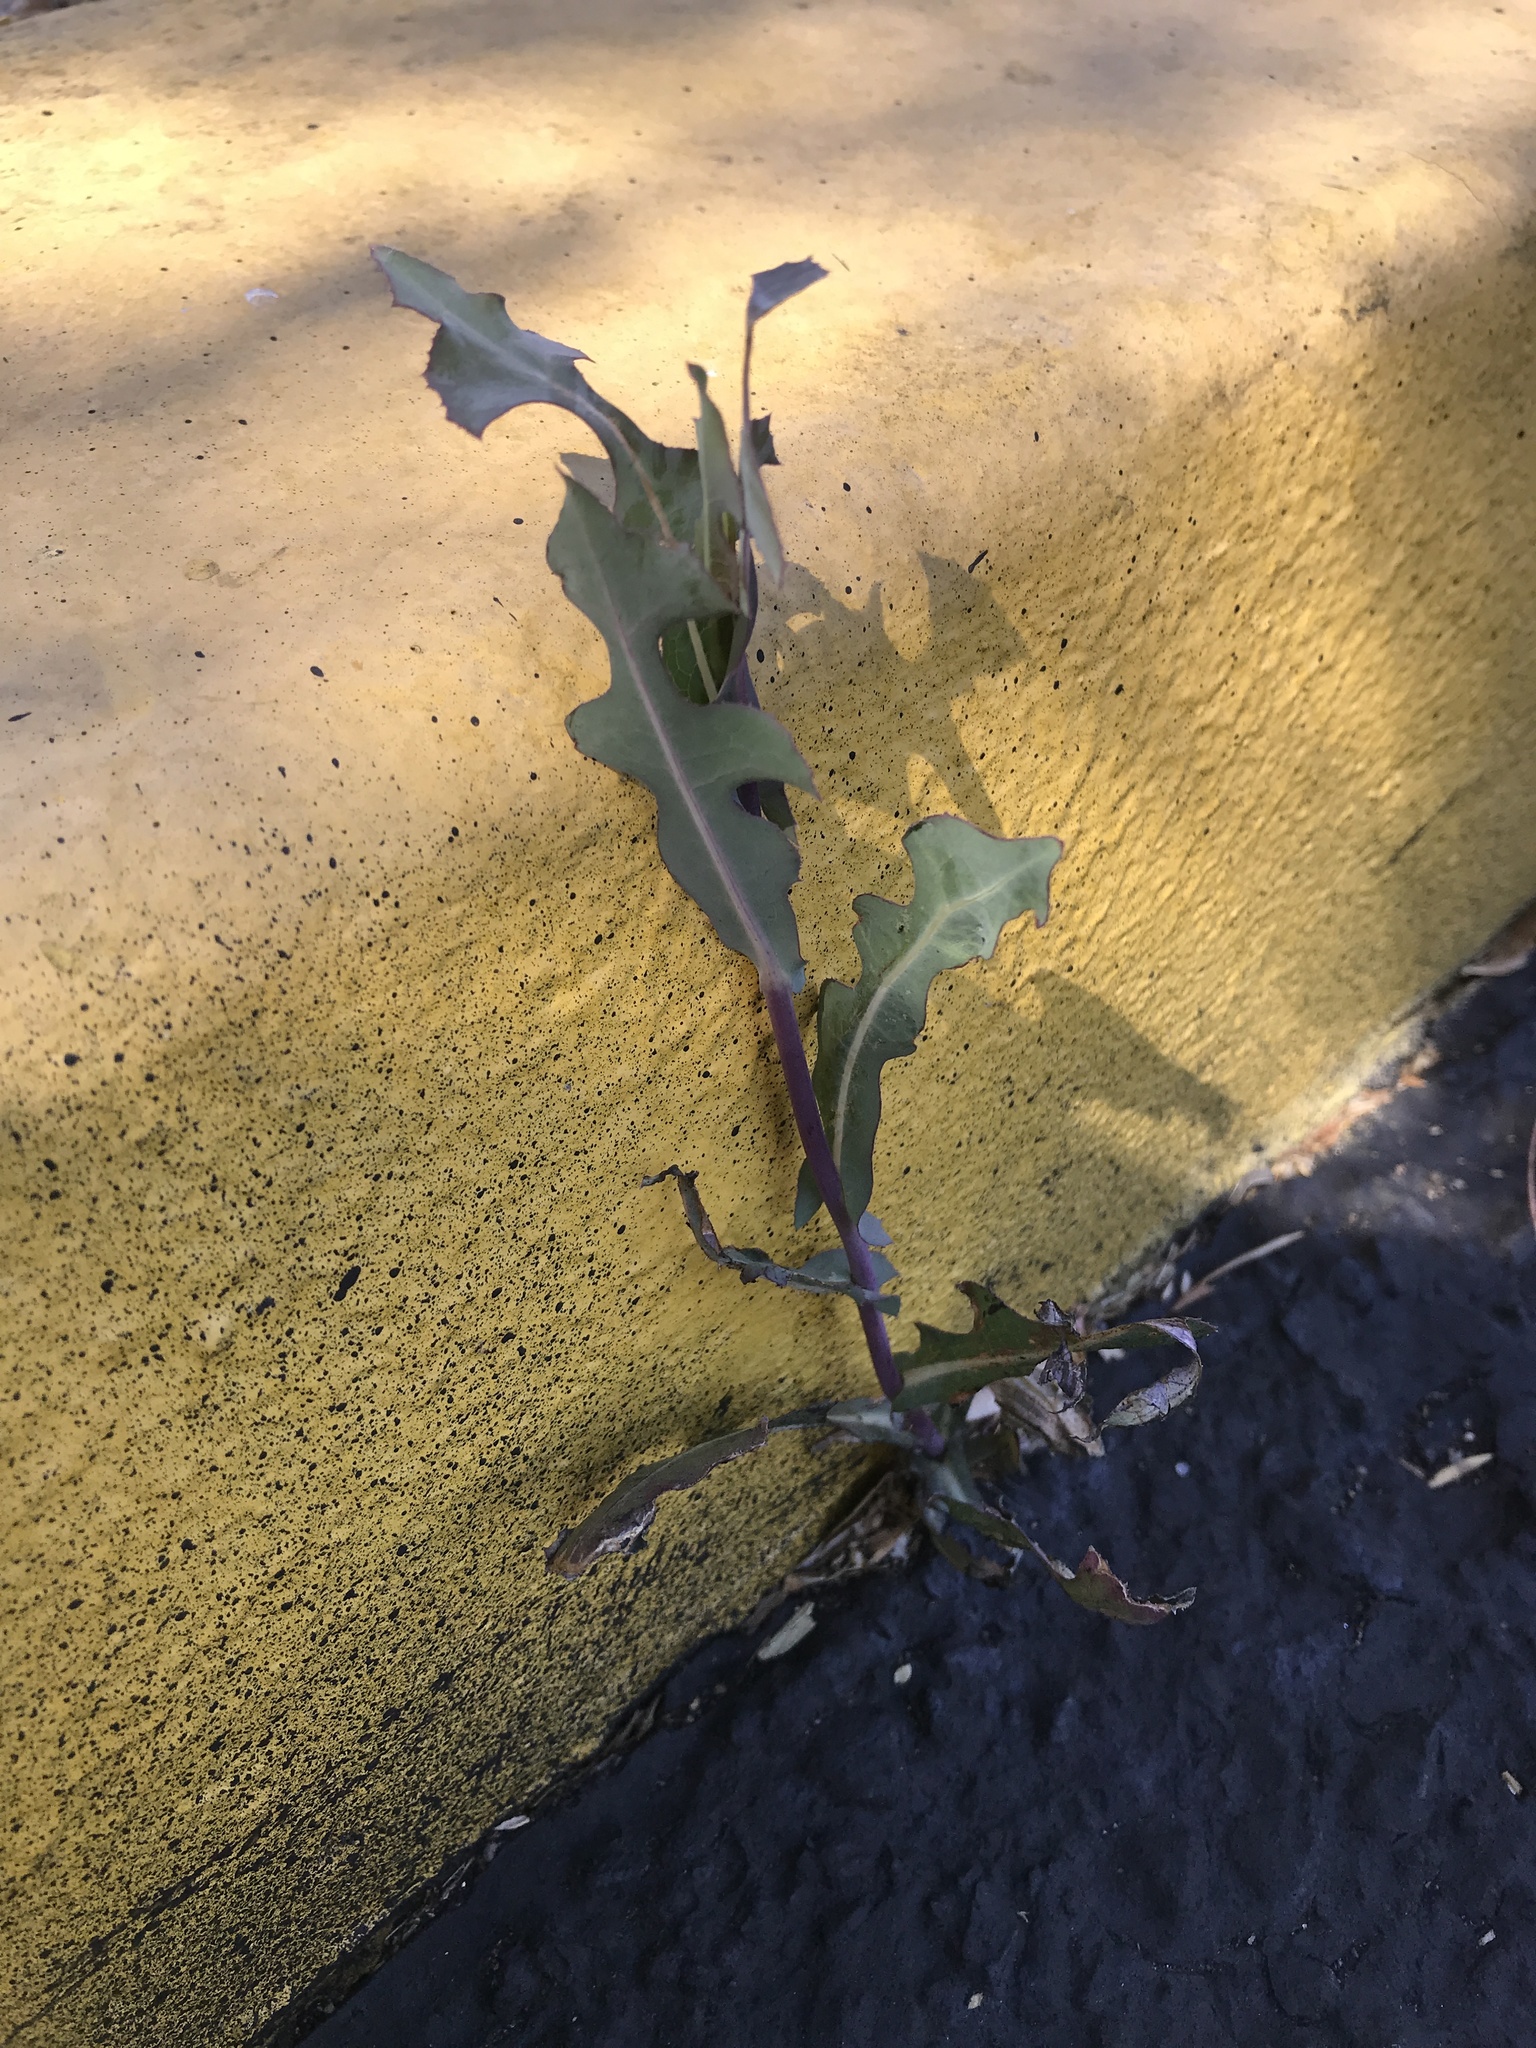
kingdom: Plantae
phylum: Tracheophyta
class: Magnoliopsida
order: Asterales
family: Asteraceae
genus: Lactuca
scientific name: Lactuca serriola
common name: Prickly lettuce
